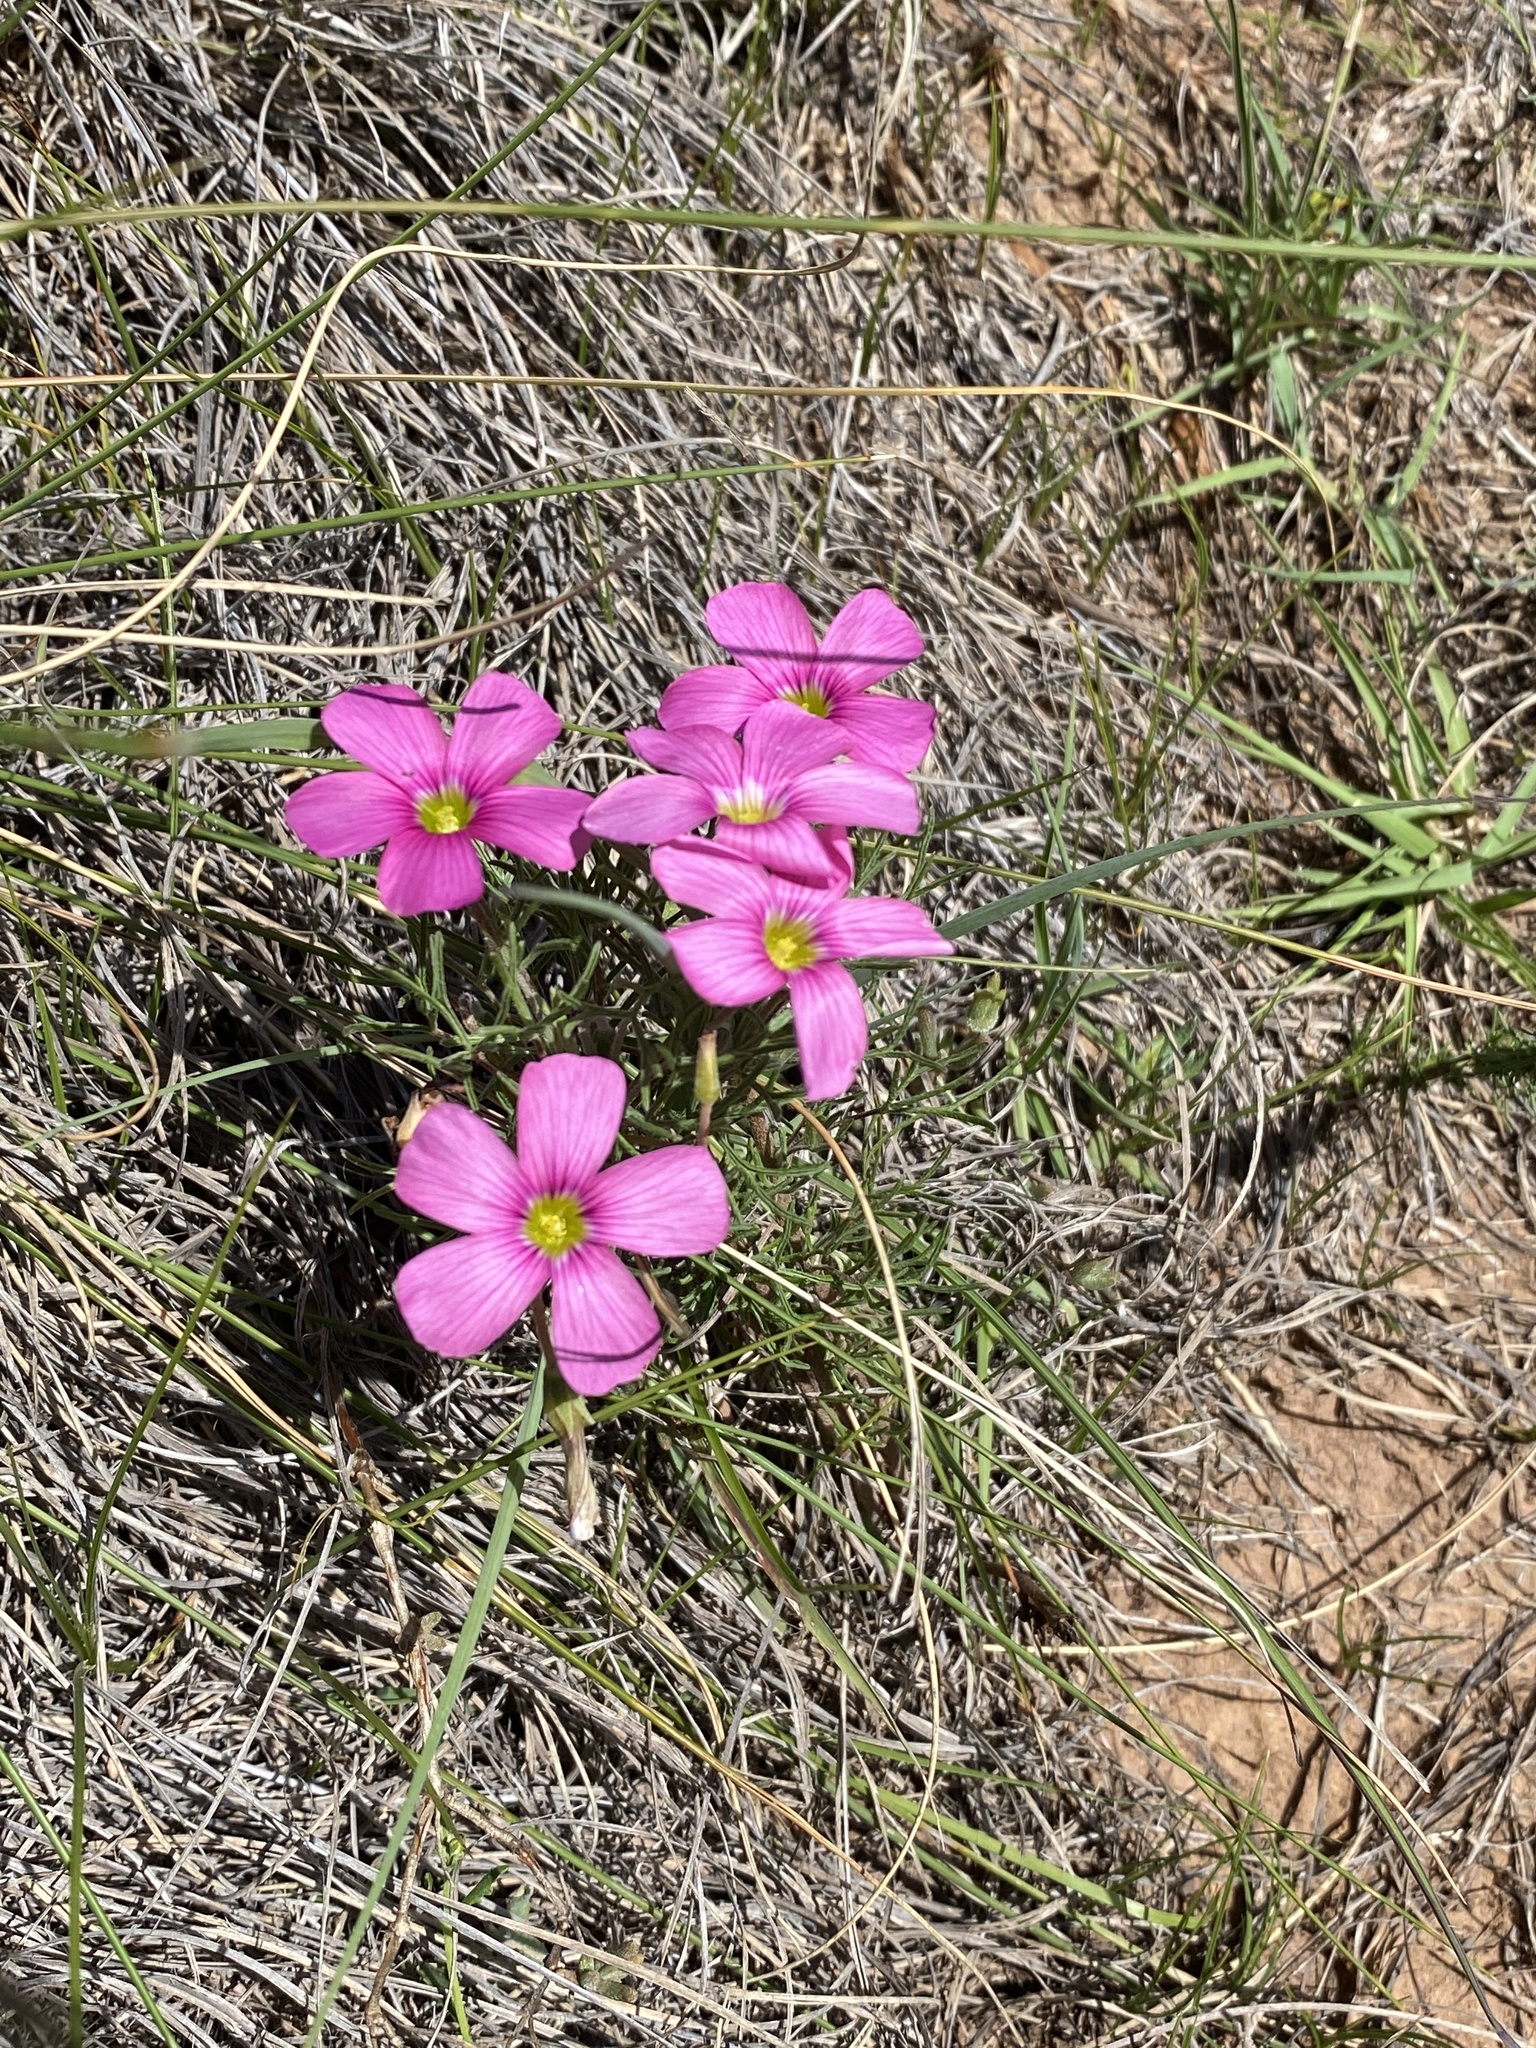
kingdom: Plantae
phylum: Tracheophyta
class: Magnoliopsida
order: Oxalidales
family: Oxalidaceae
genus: Oxalis
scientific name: Oxalis bifurca
